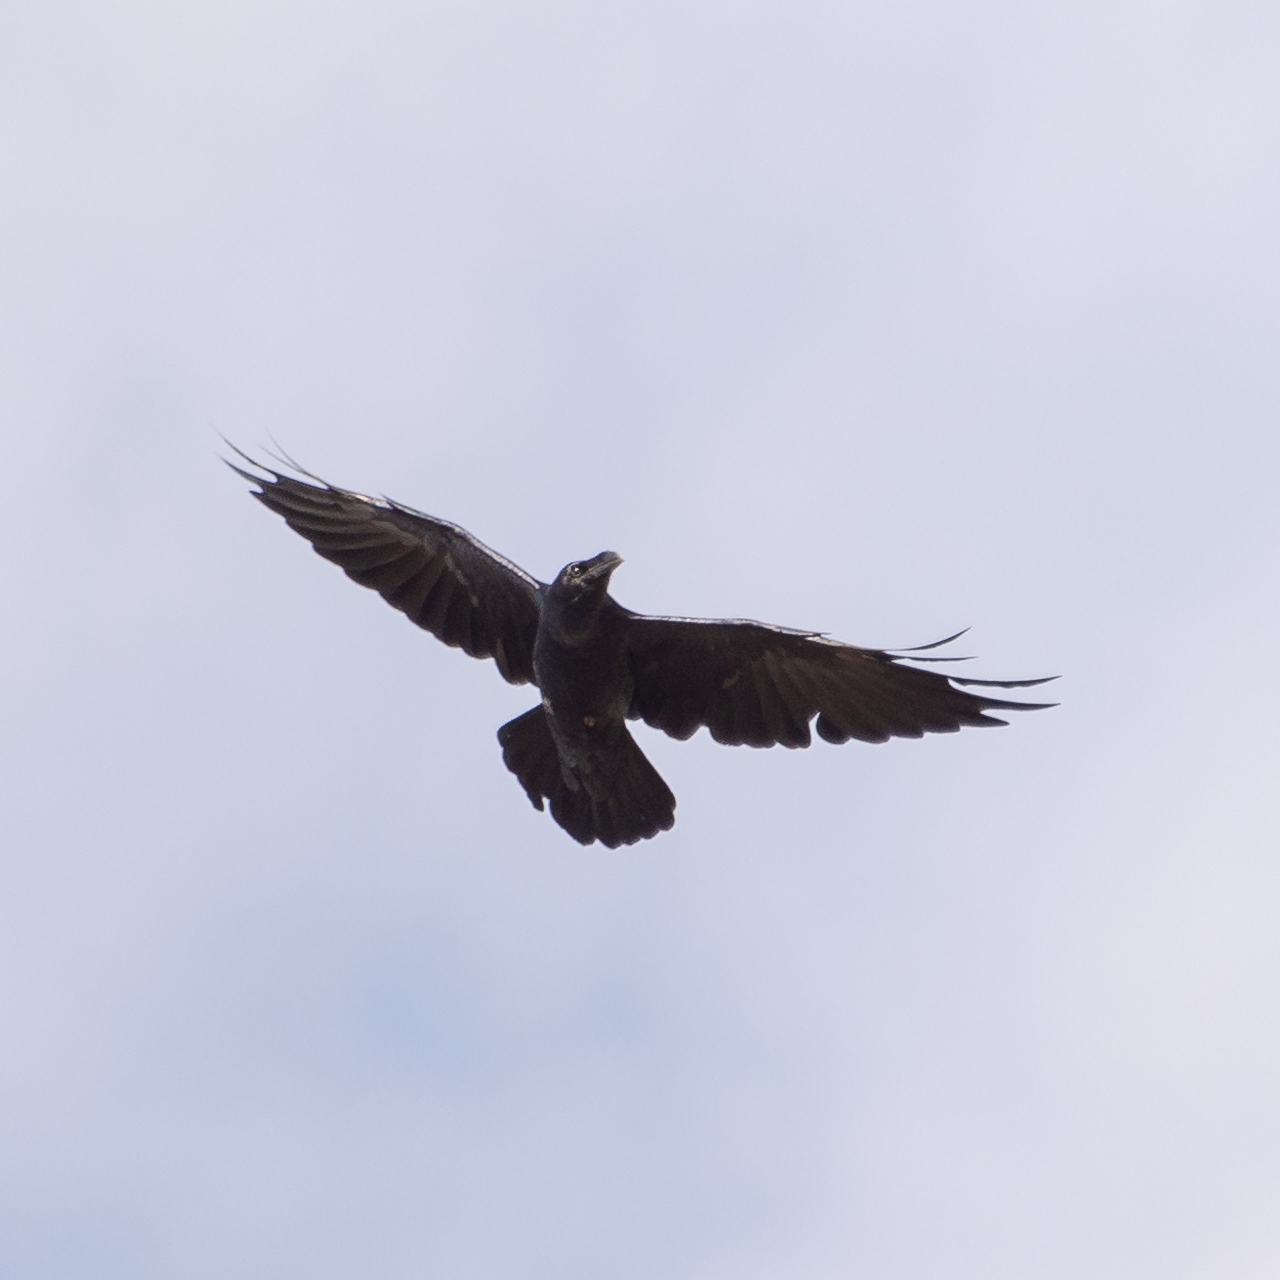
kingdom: Animalia
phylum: Chordata
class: Aves
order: Passeriformes
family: Corvidae
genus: Corvus
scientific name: Corvus corax
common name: Common raven
